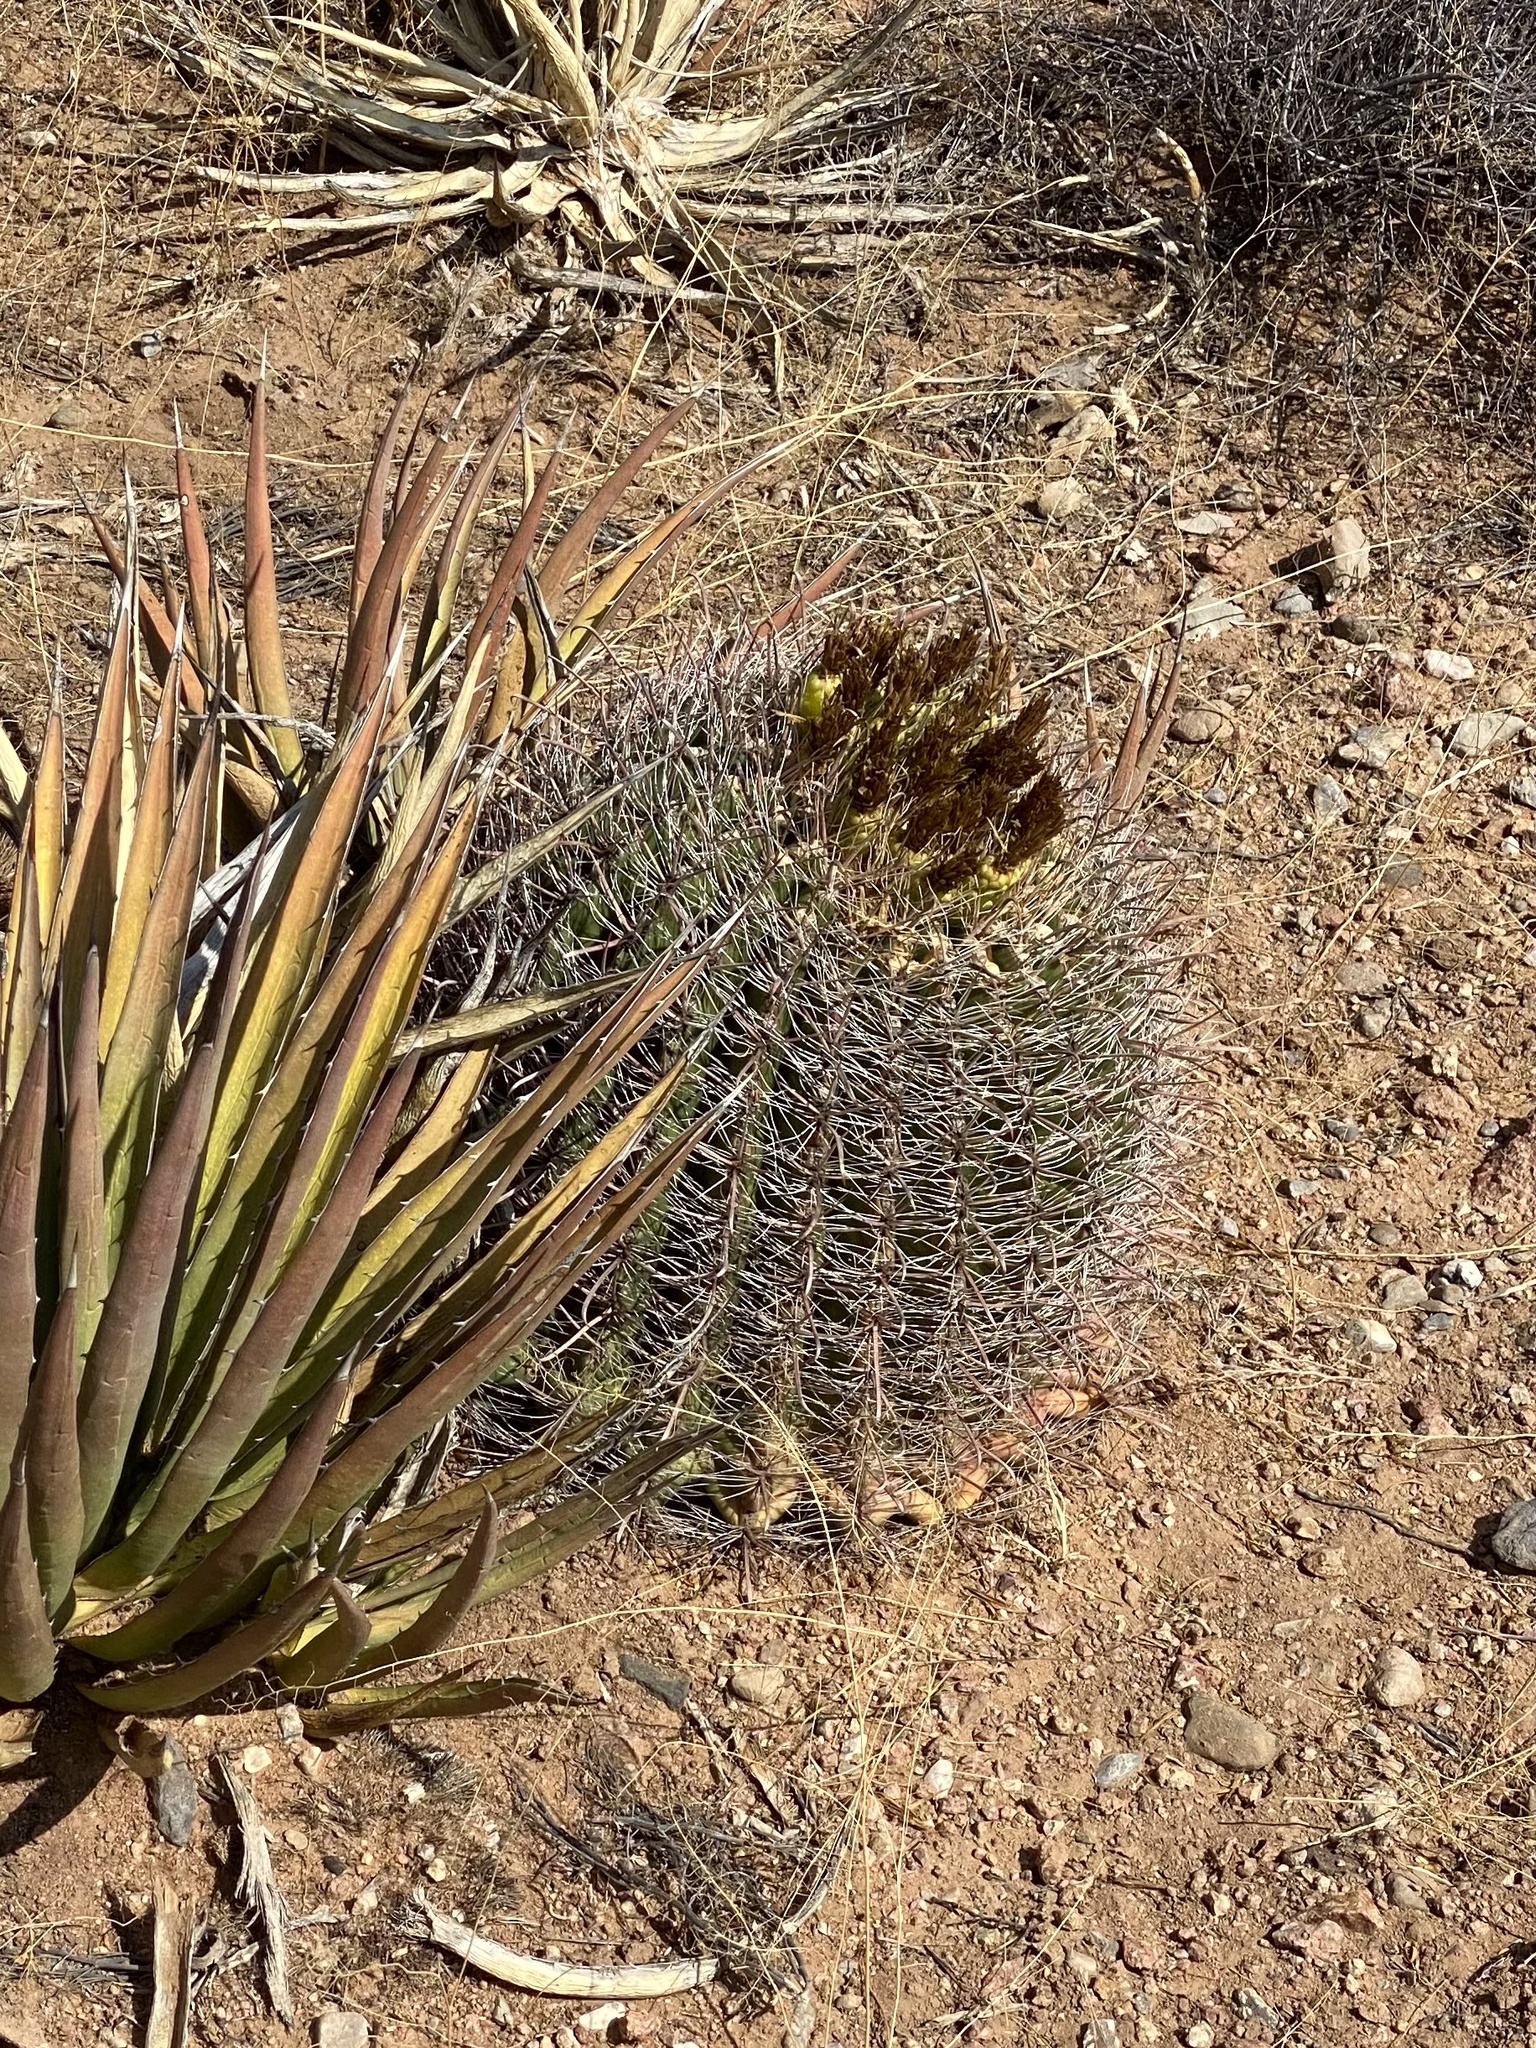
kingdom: Plantae
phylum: Tracheophyta
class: Magnoliopsida
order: Caryophyllales
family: Cactaceae
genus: Ferocactus
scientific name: Ferocactus wislizeni
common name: Candy barrel cactus
